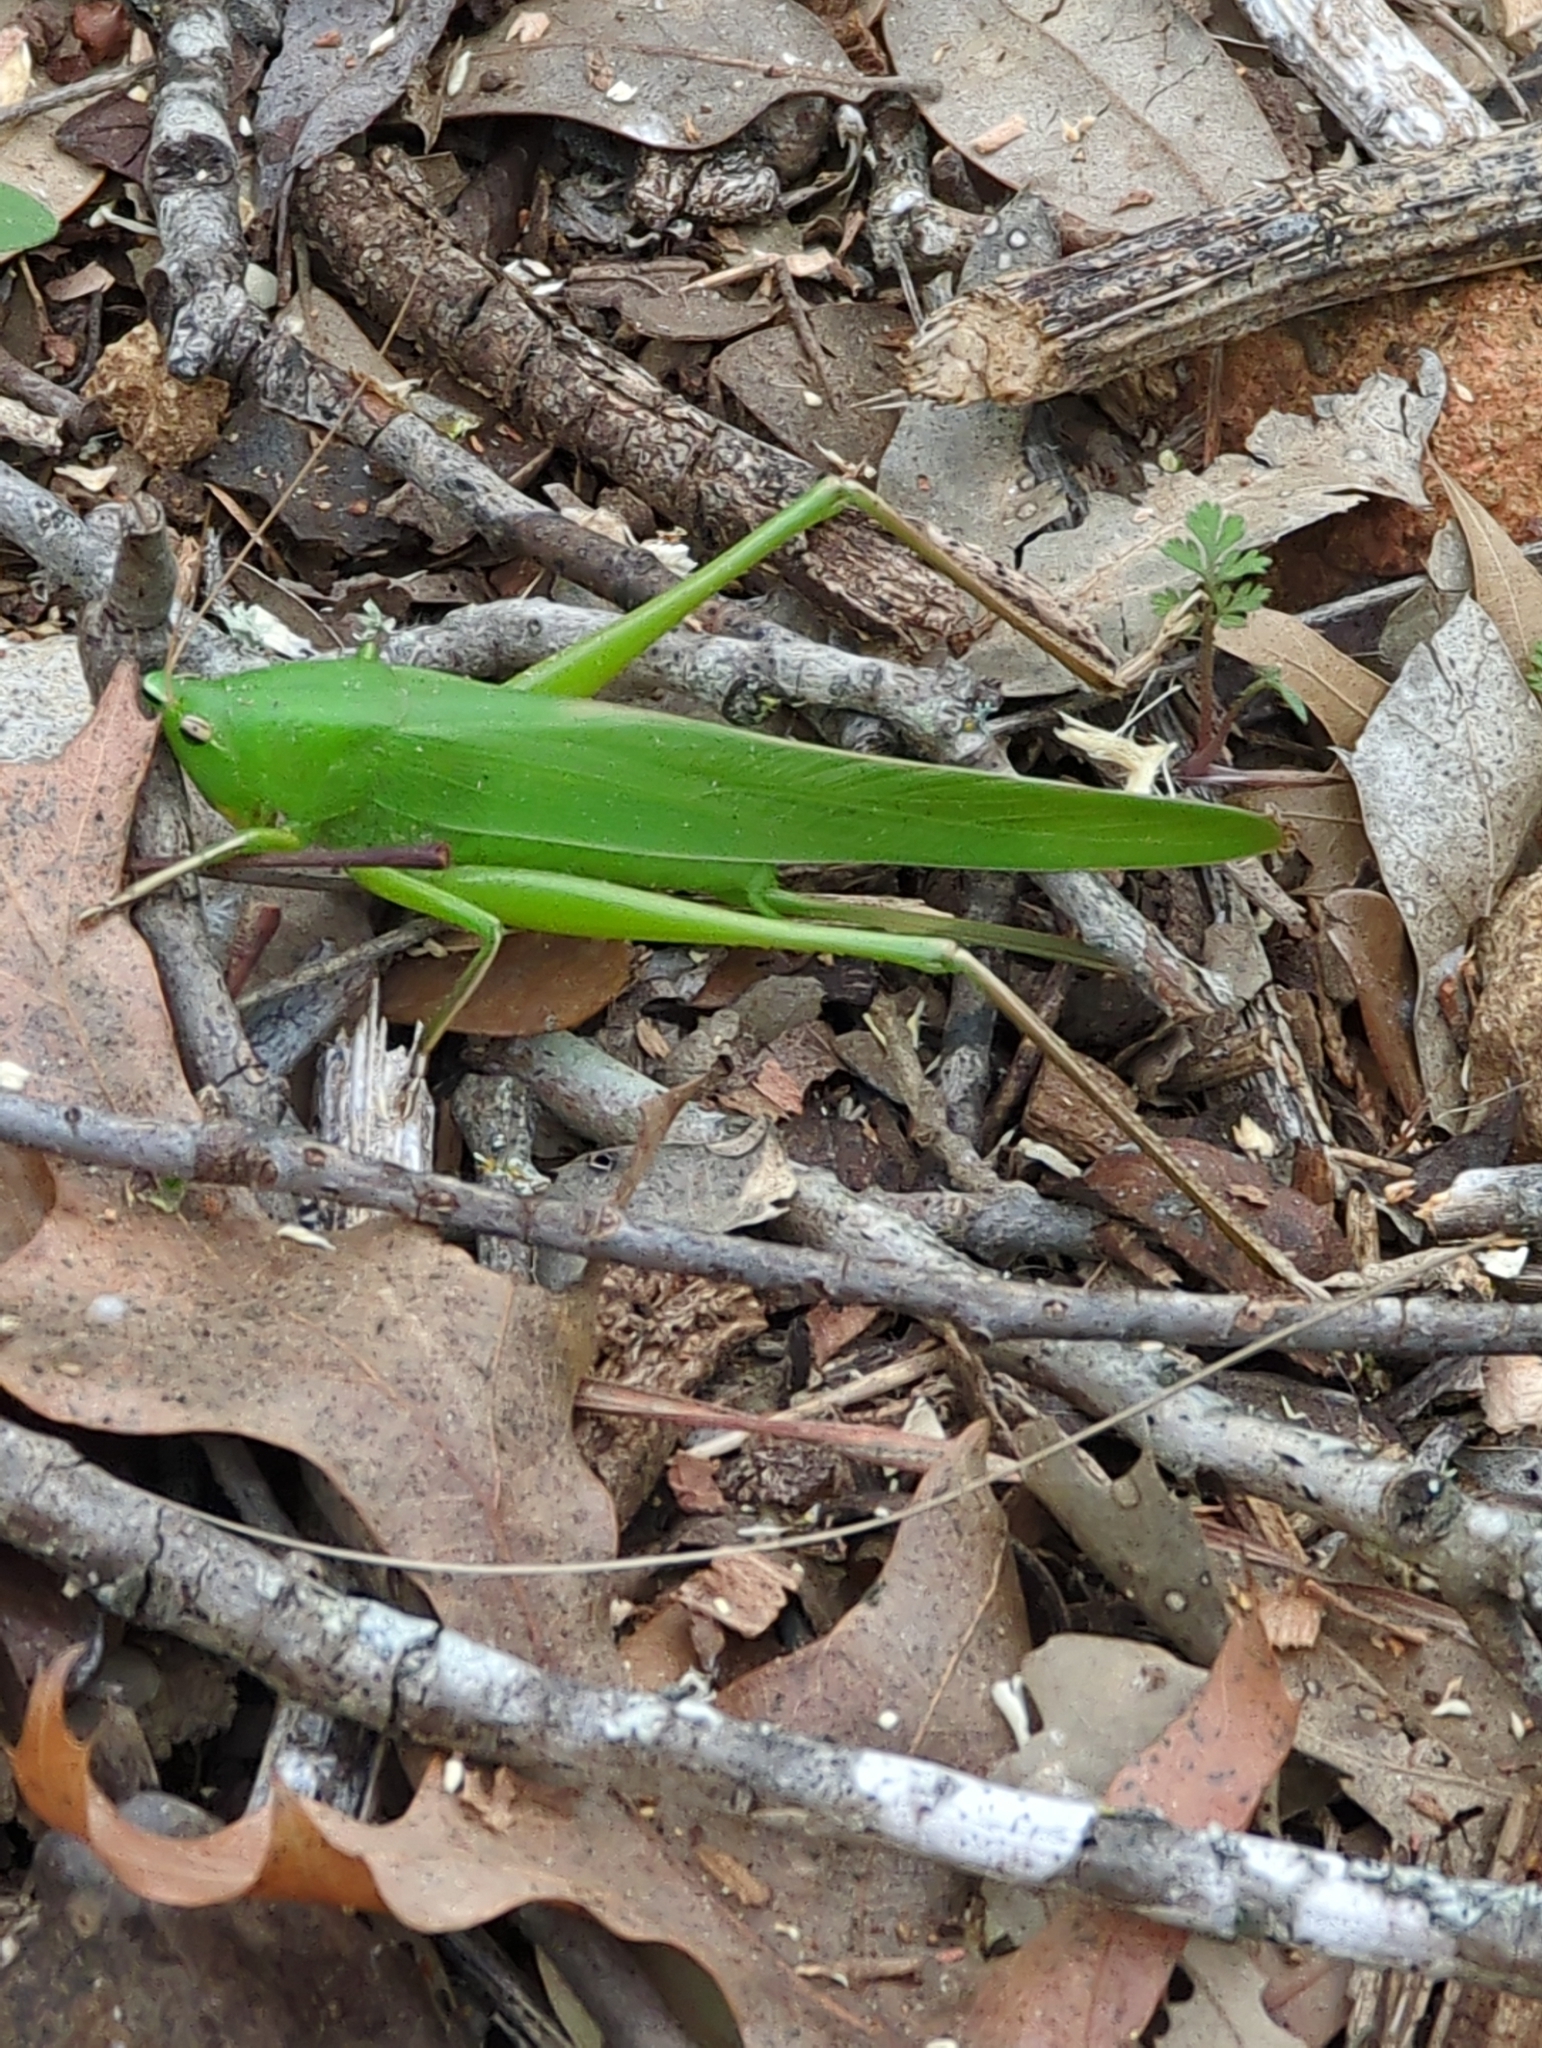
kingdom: Animalia
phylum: Arthropoda
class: Insecta
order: Orthoptera
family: Tettigoniidae
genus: Neoconocephalus
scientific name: Neoconocephalus triops
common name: Broad-tipped conehead
